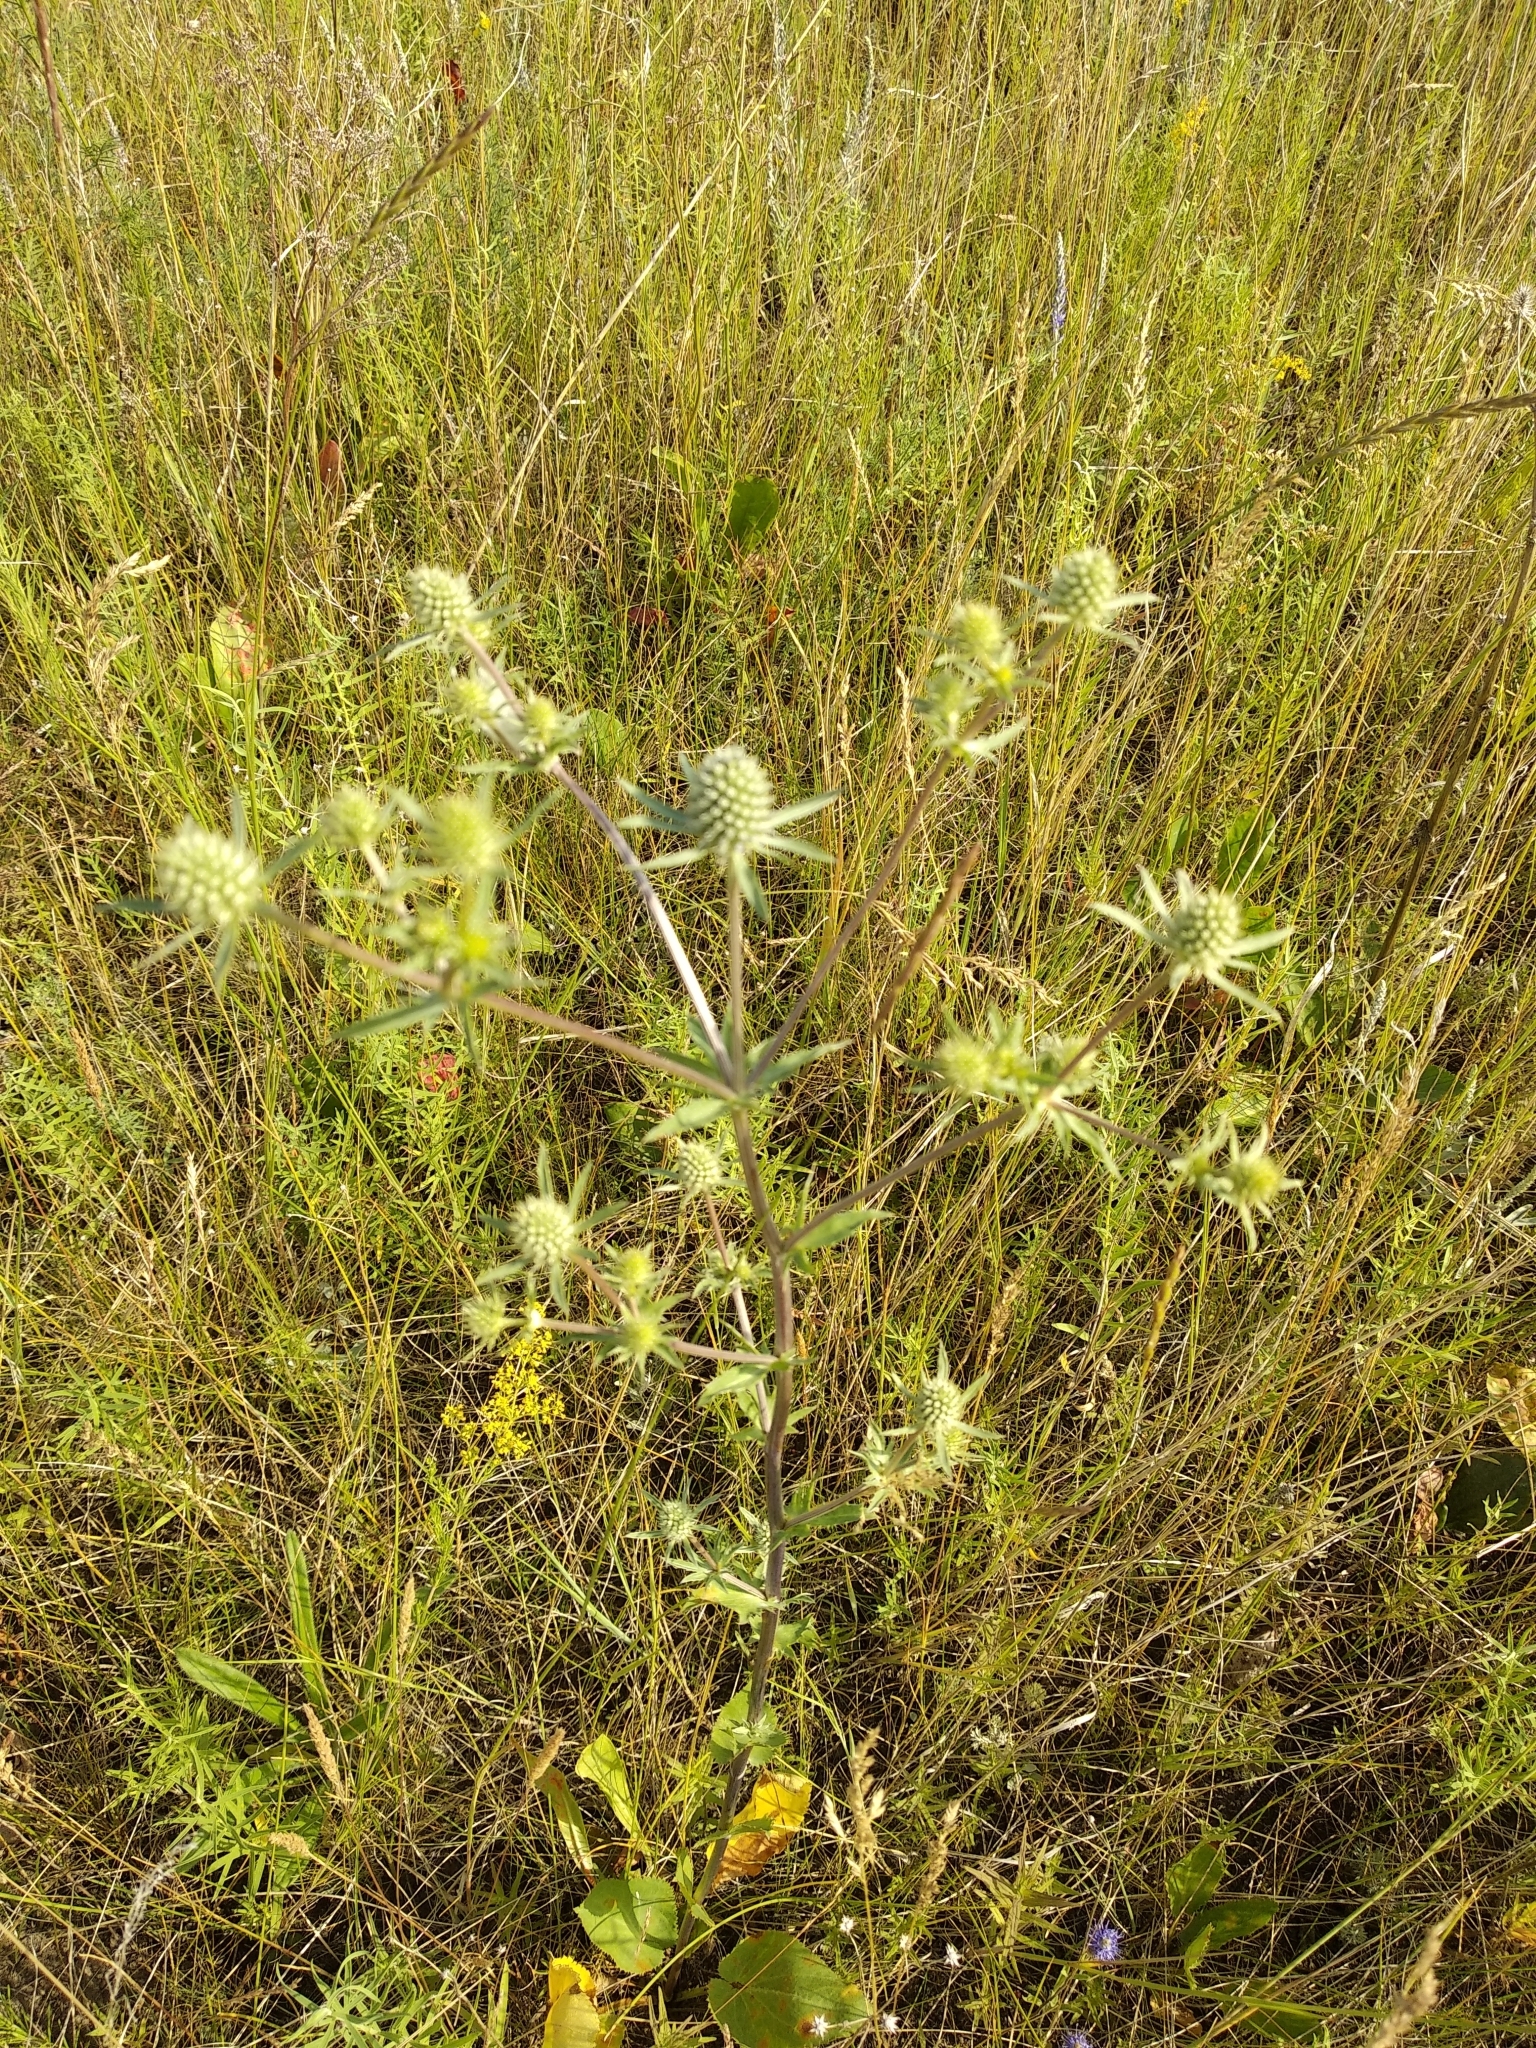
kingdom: Plantae
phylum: Tracheophyta
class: Magnoliopsida
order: Apiales
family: Apiaceae
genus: Eryngium
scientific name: Eryngium planum
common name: Blue eryngo
